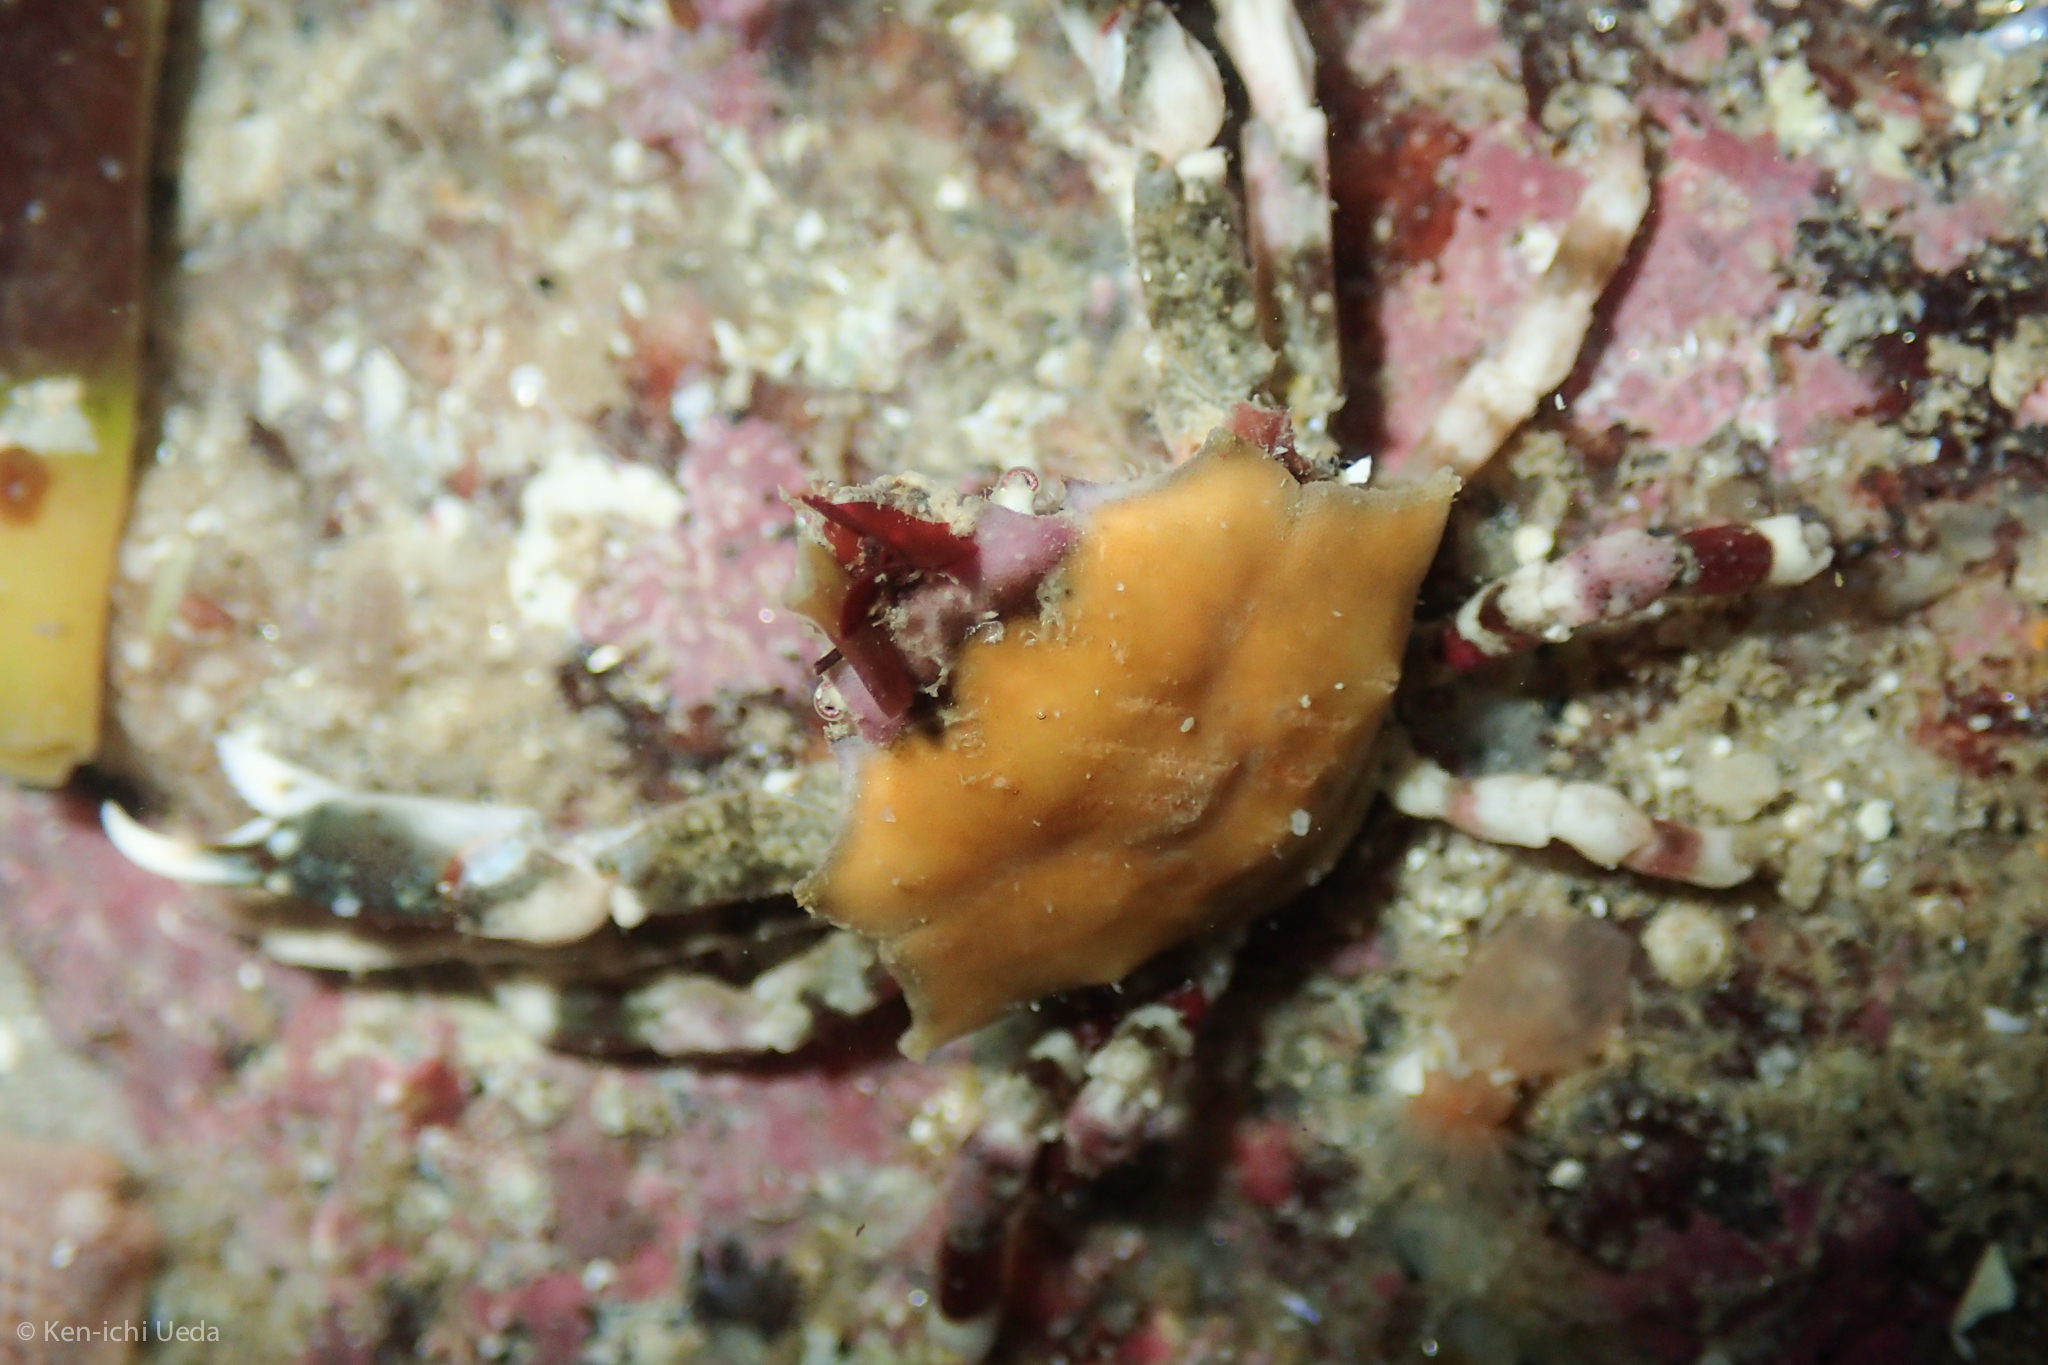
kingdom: Animalia
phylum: Arthropoda
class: Malacostraca
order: Decapoda
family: Epialtidae
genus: Pugettia
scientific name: Pugettia foliata
